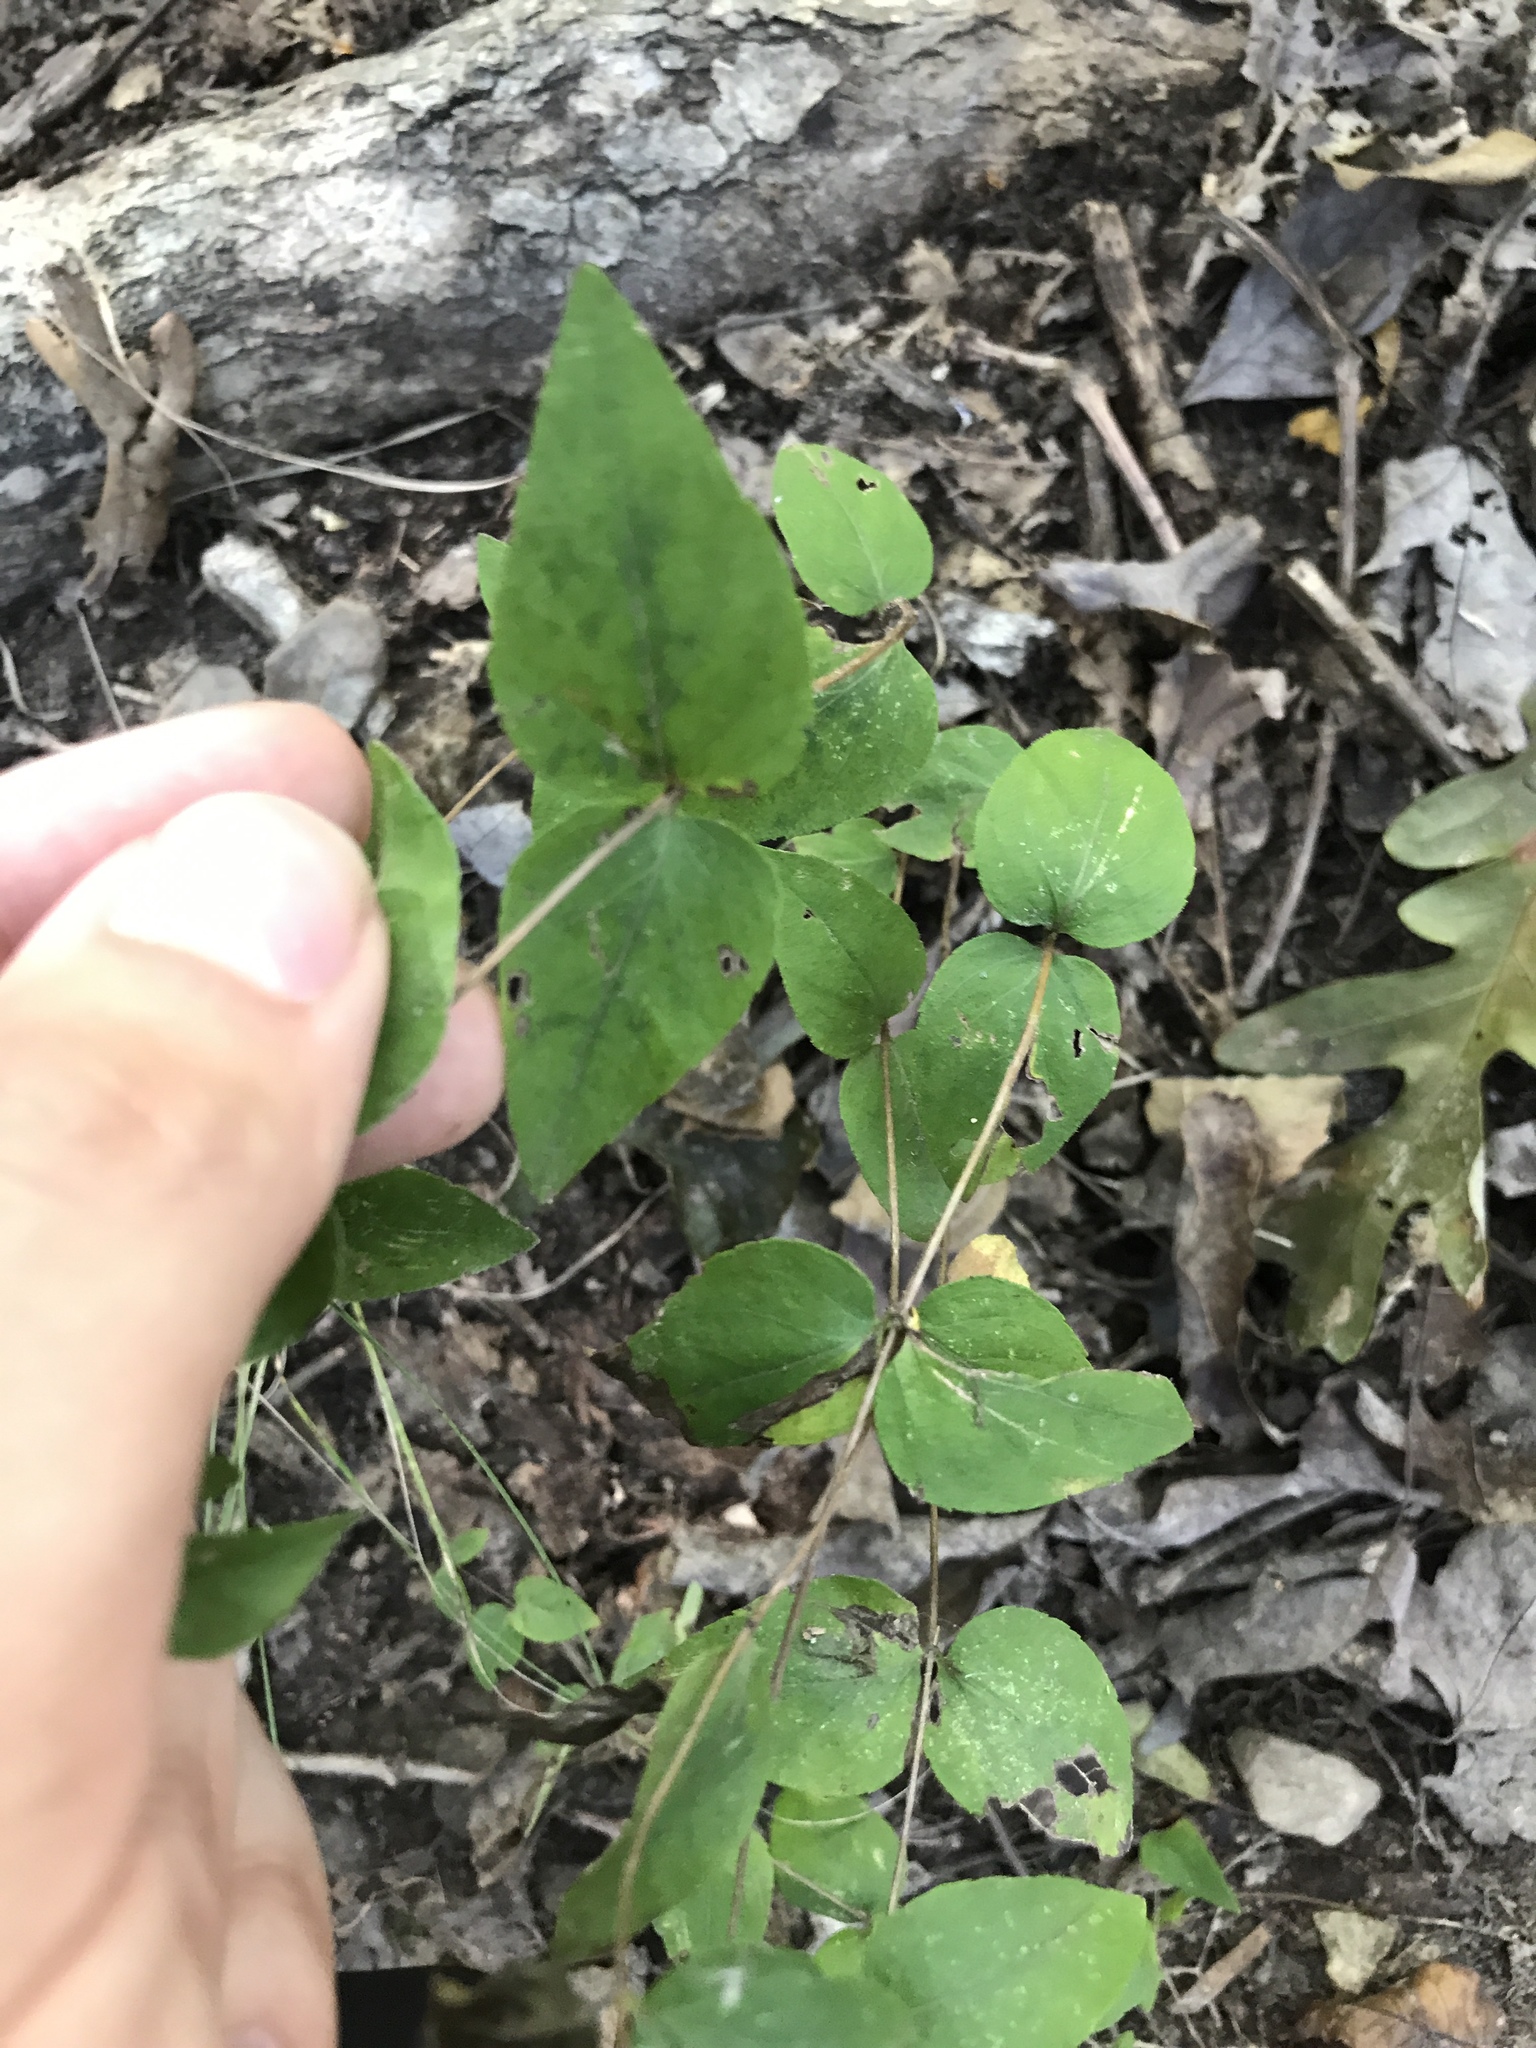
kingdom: Plantae
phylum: Tracheophyta
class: Magnoliopsida
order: Lamiales
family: Lamiaceae
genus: Cunila
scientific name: Cunila origanoides
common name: American dittany
